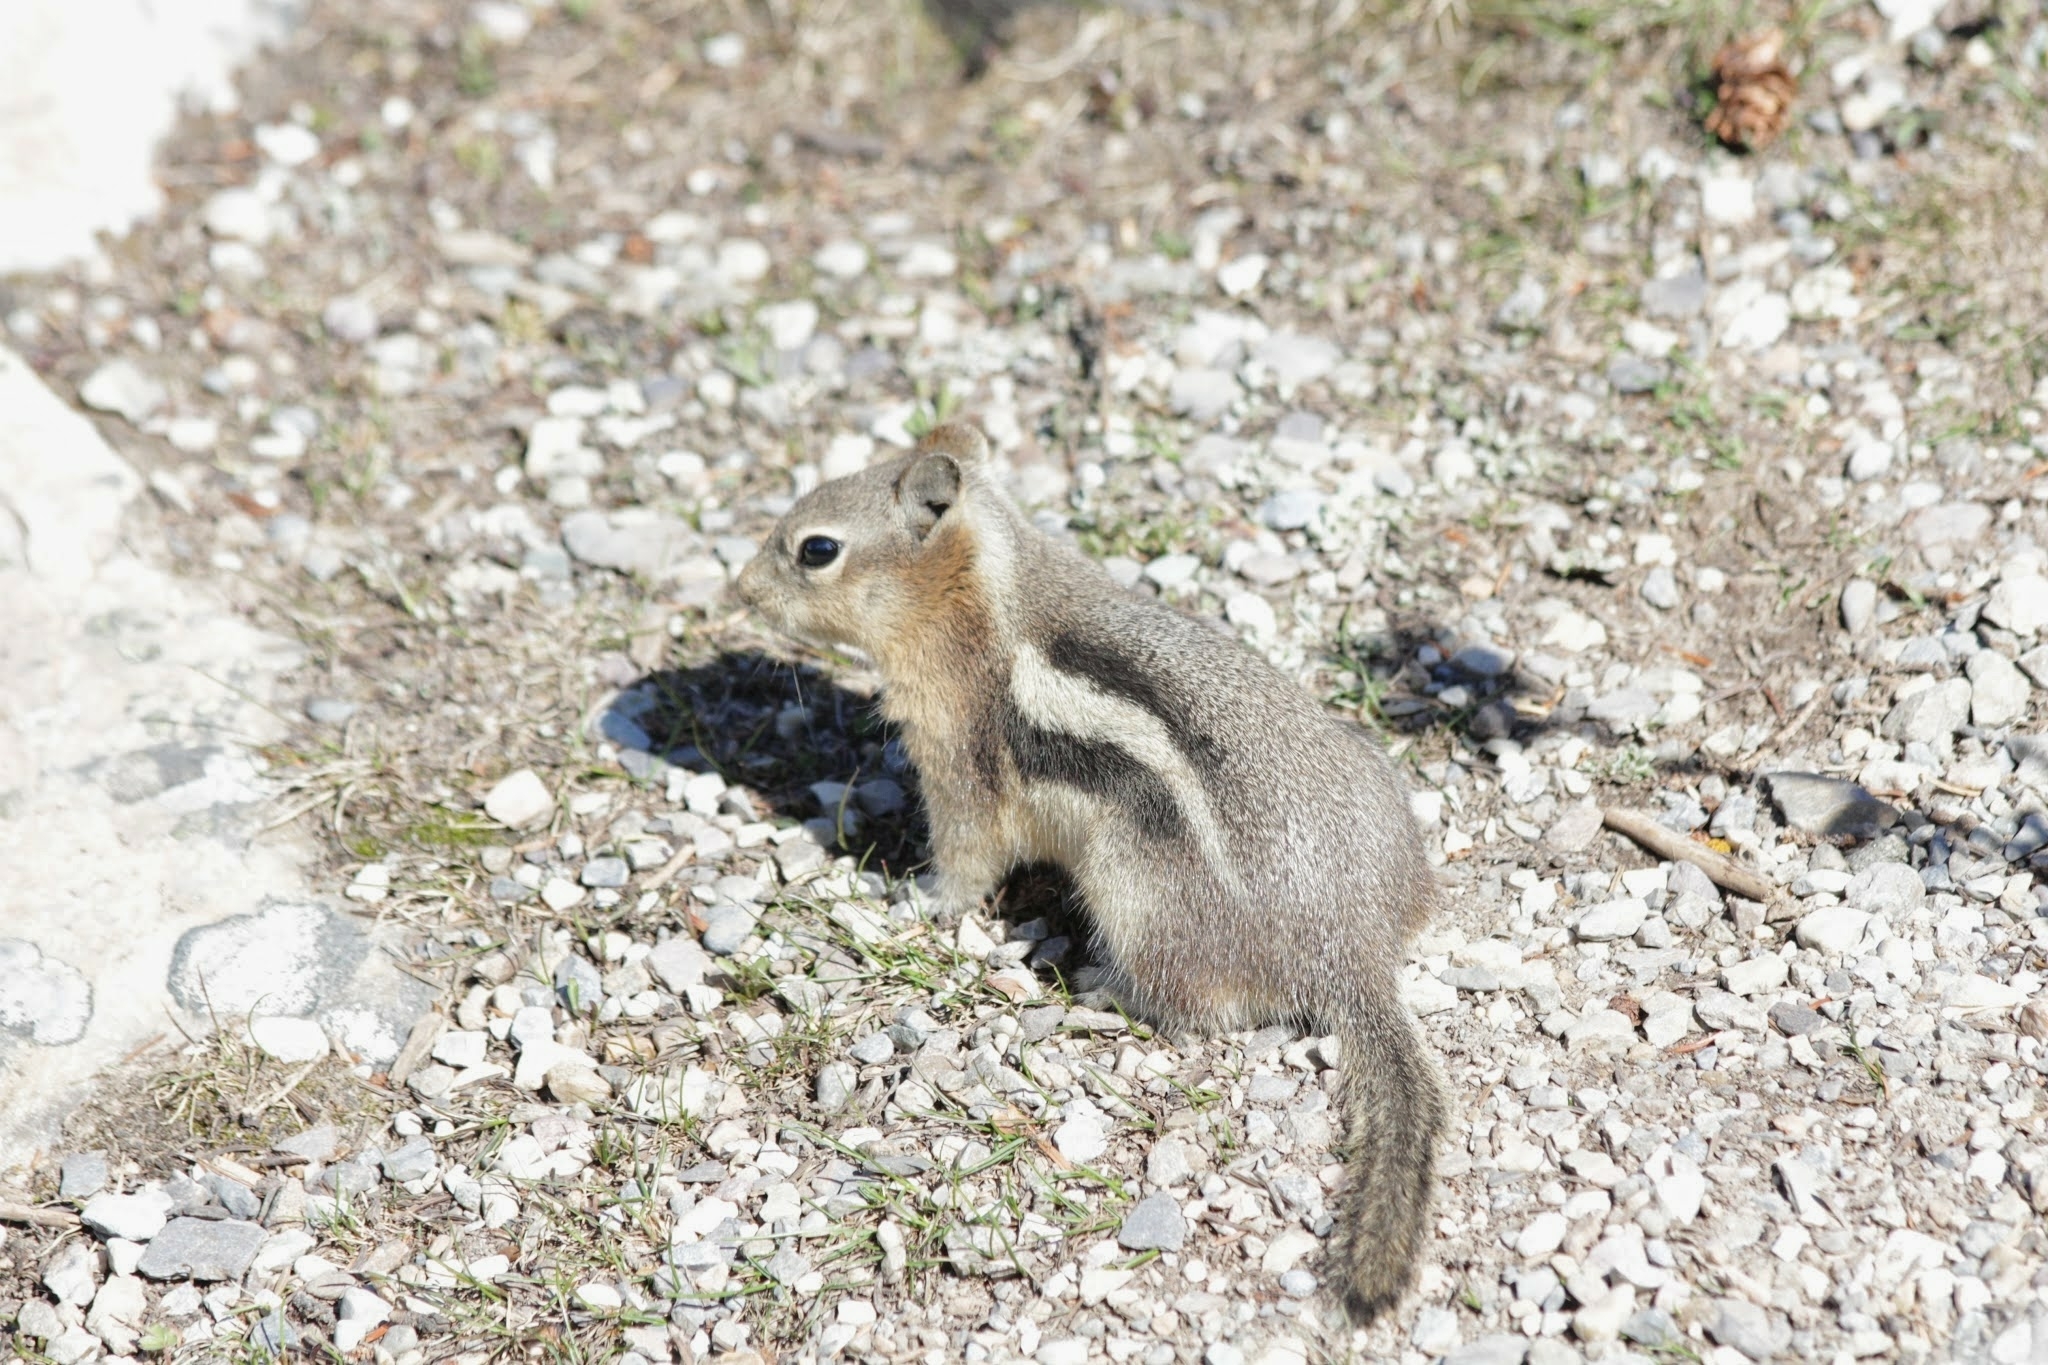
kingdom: Animalia
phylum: Chordata
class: Mammalia
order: Rodentia
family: Sciuridae
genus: Callospermophilus
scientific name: Callospermophilus lateralis
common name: Golden-mantled ground squirrel
